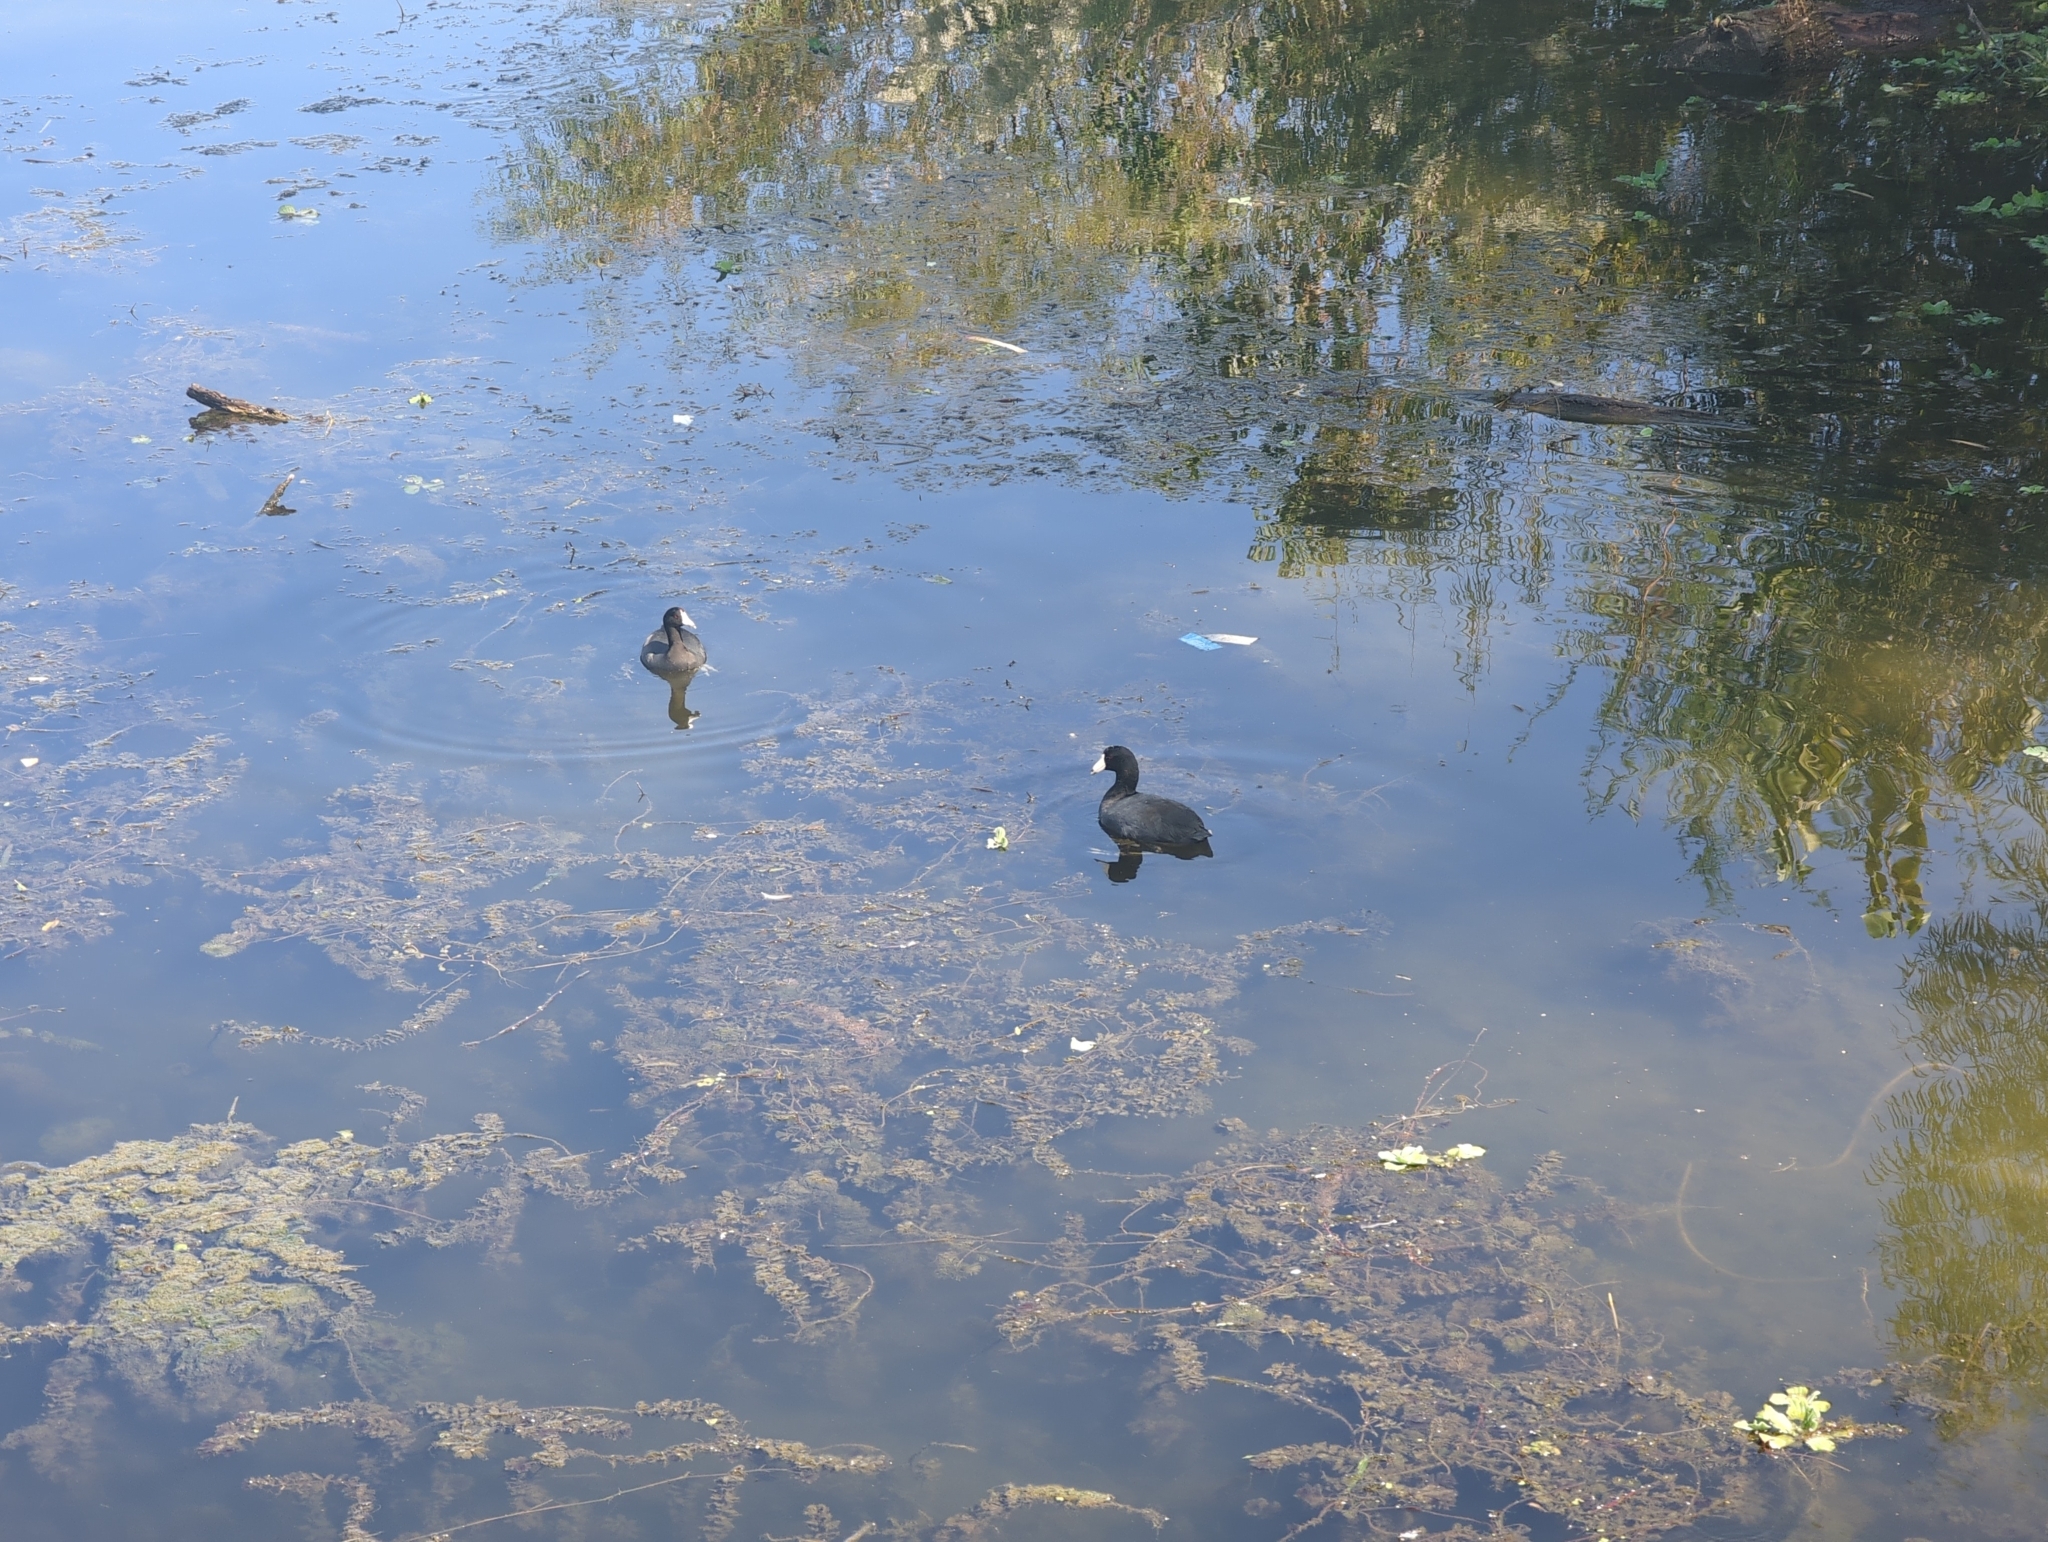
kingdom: Animalia
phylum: Chordata
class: Aves
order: Gruiformes
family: Rallidae
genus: Fulica
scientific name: Fulica americana
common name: American coot
